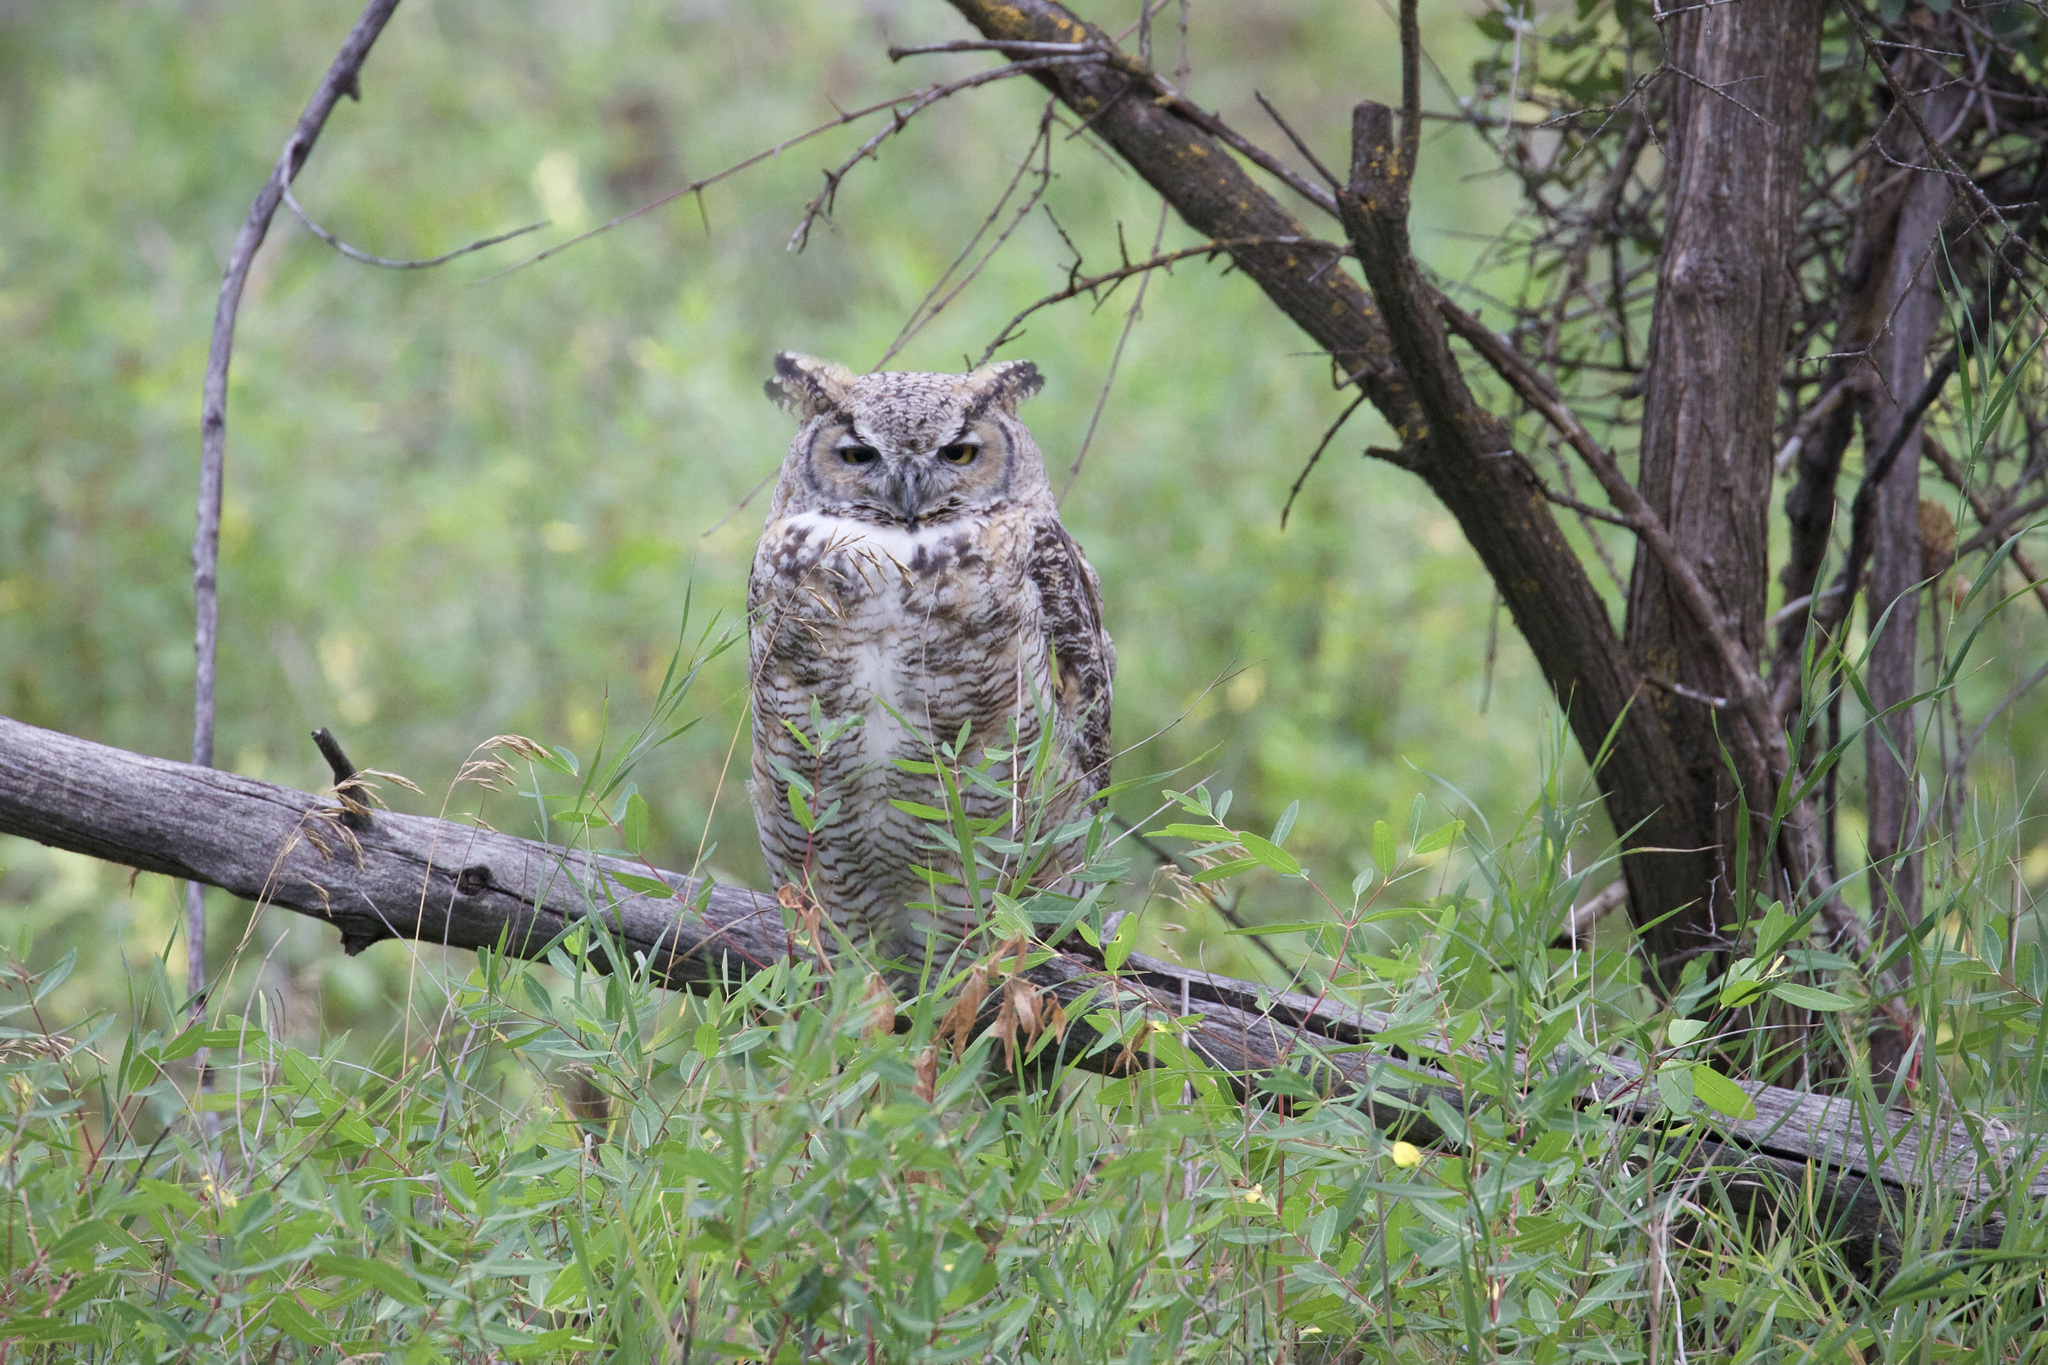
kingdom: Animalia
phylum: Chordata
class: Aves
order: Strigiformes
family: Strigidae
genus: Bubo
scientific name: Bubo virginianus
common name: Great horned owl
